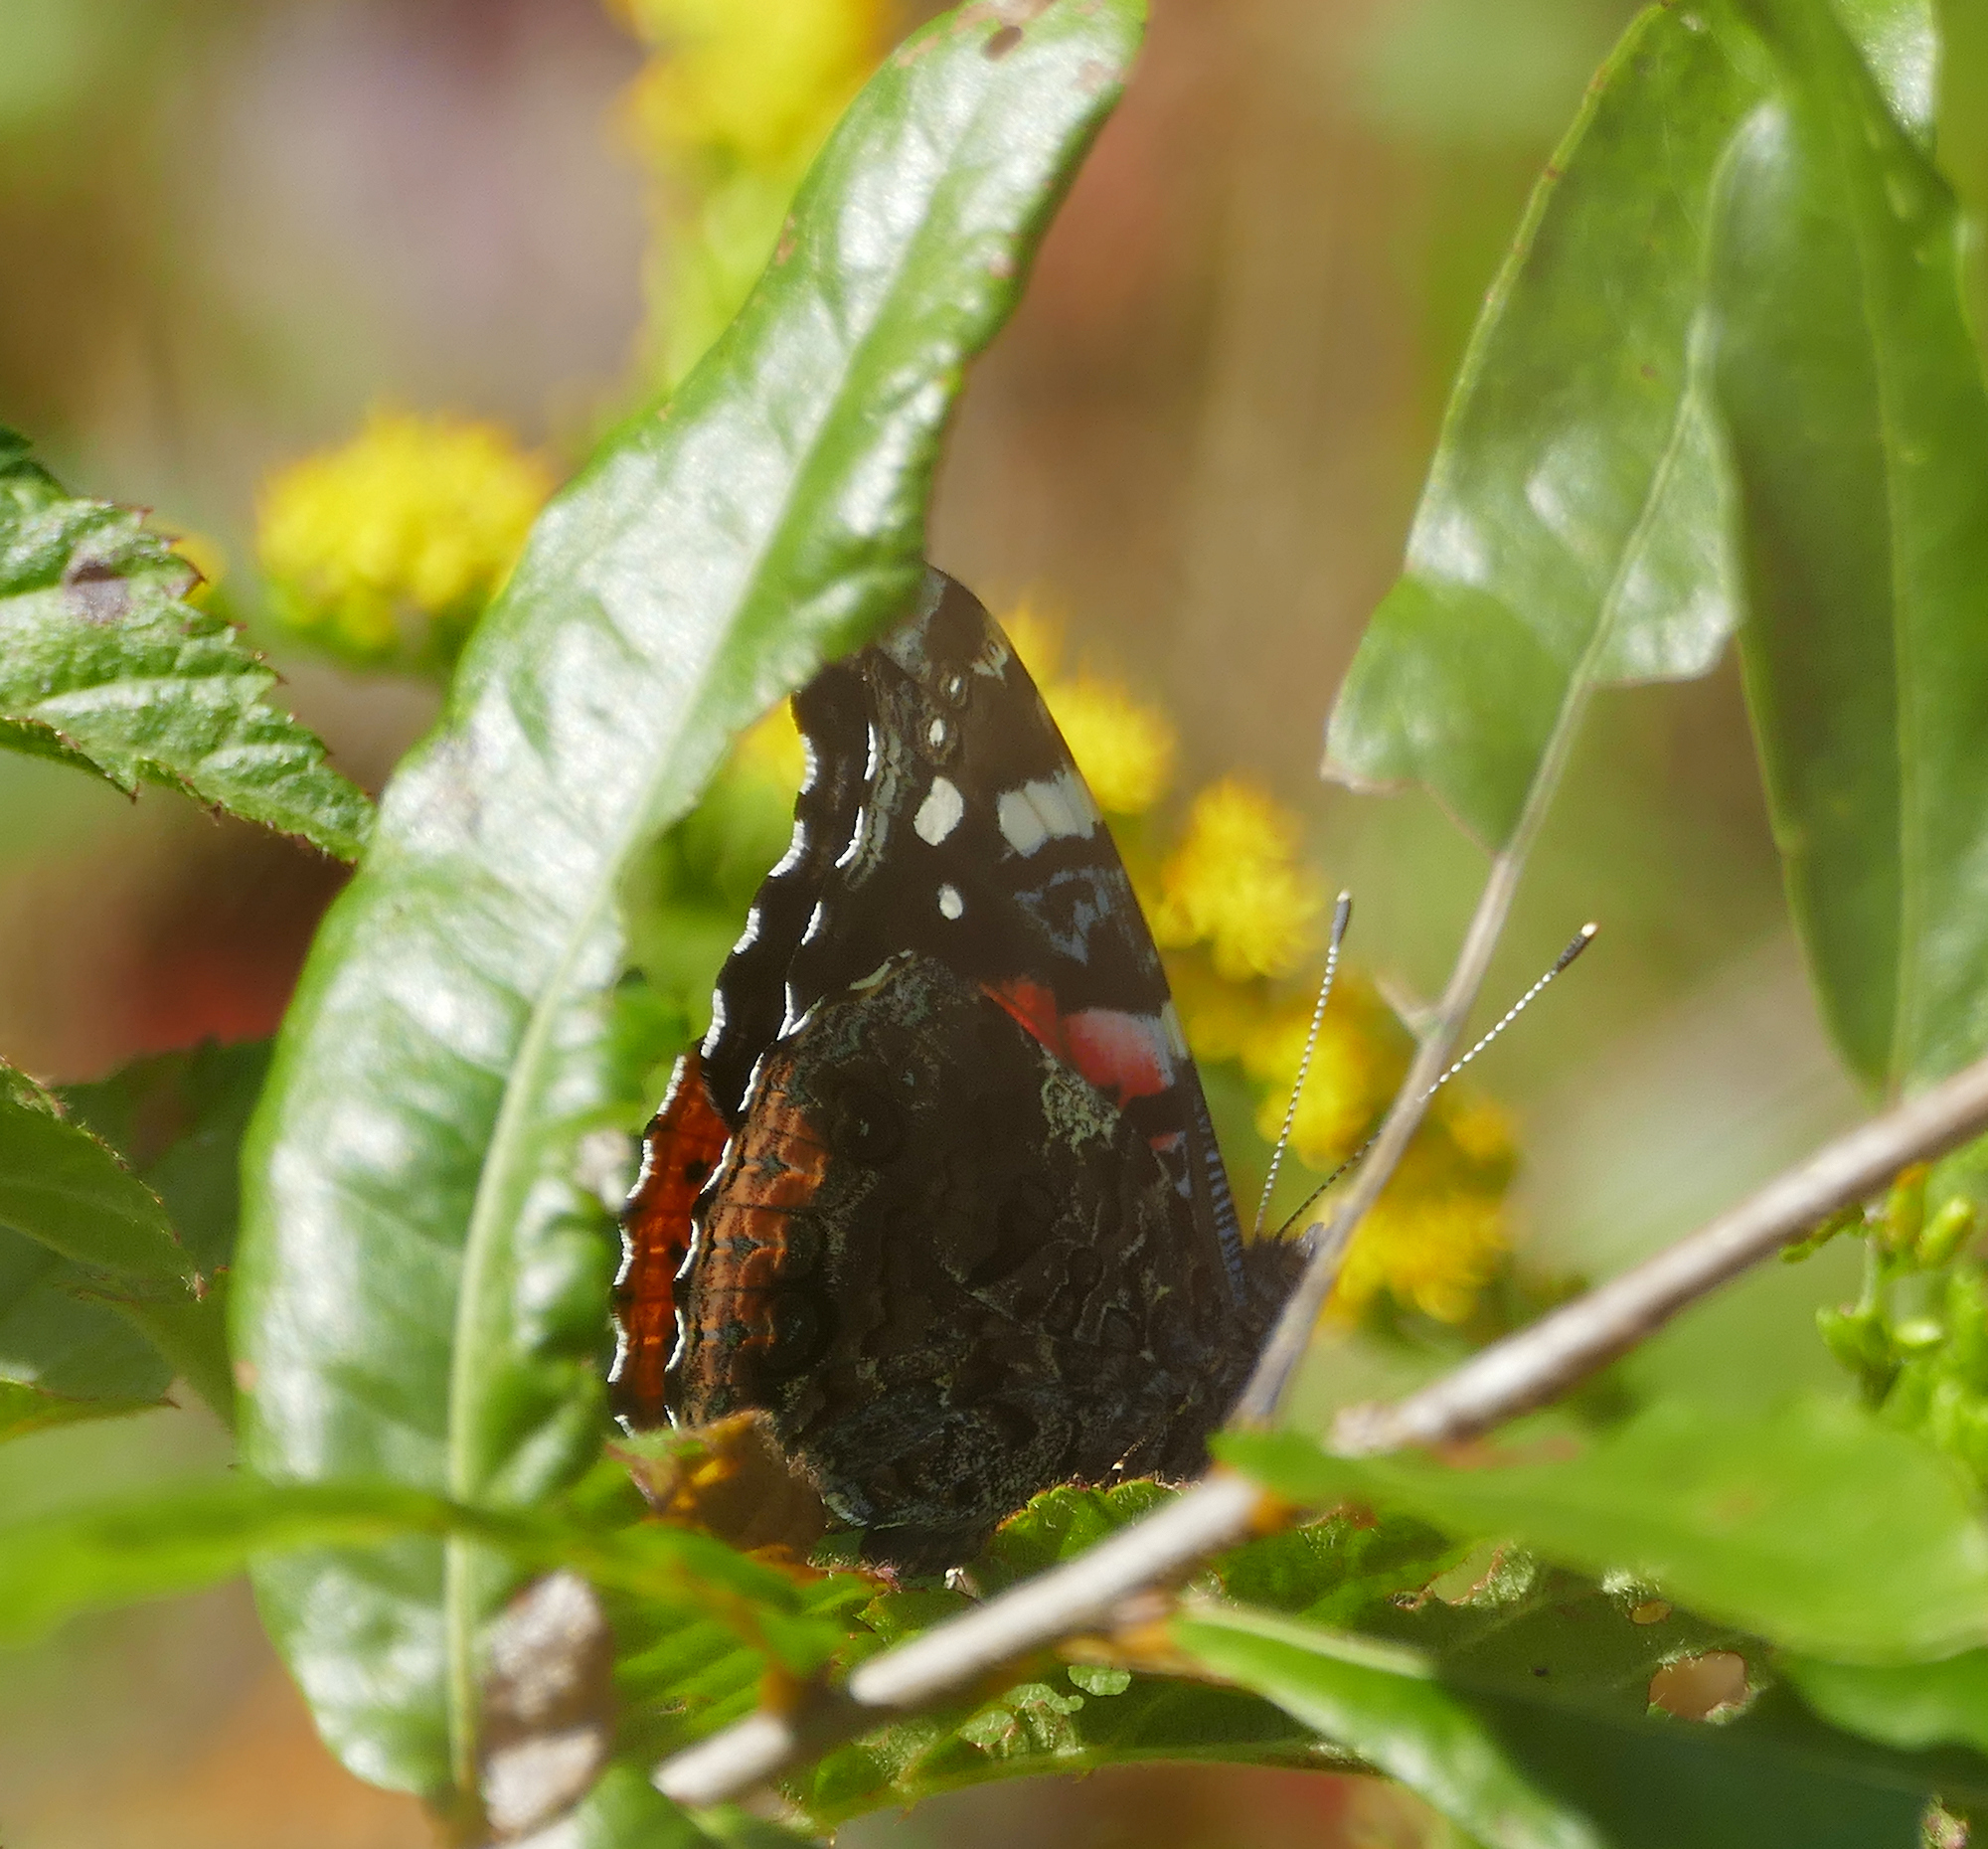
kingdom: Animalia
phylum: Arthropoda
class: Insecta
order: Lepidoptera
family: Nymphalidae
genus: Vanessa
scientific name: Vanessa atalanta
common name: Red admiral
